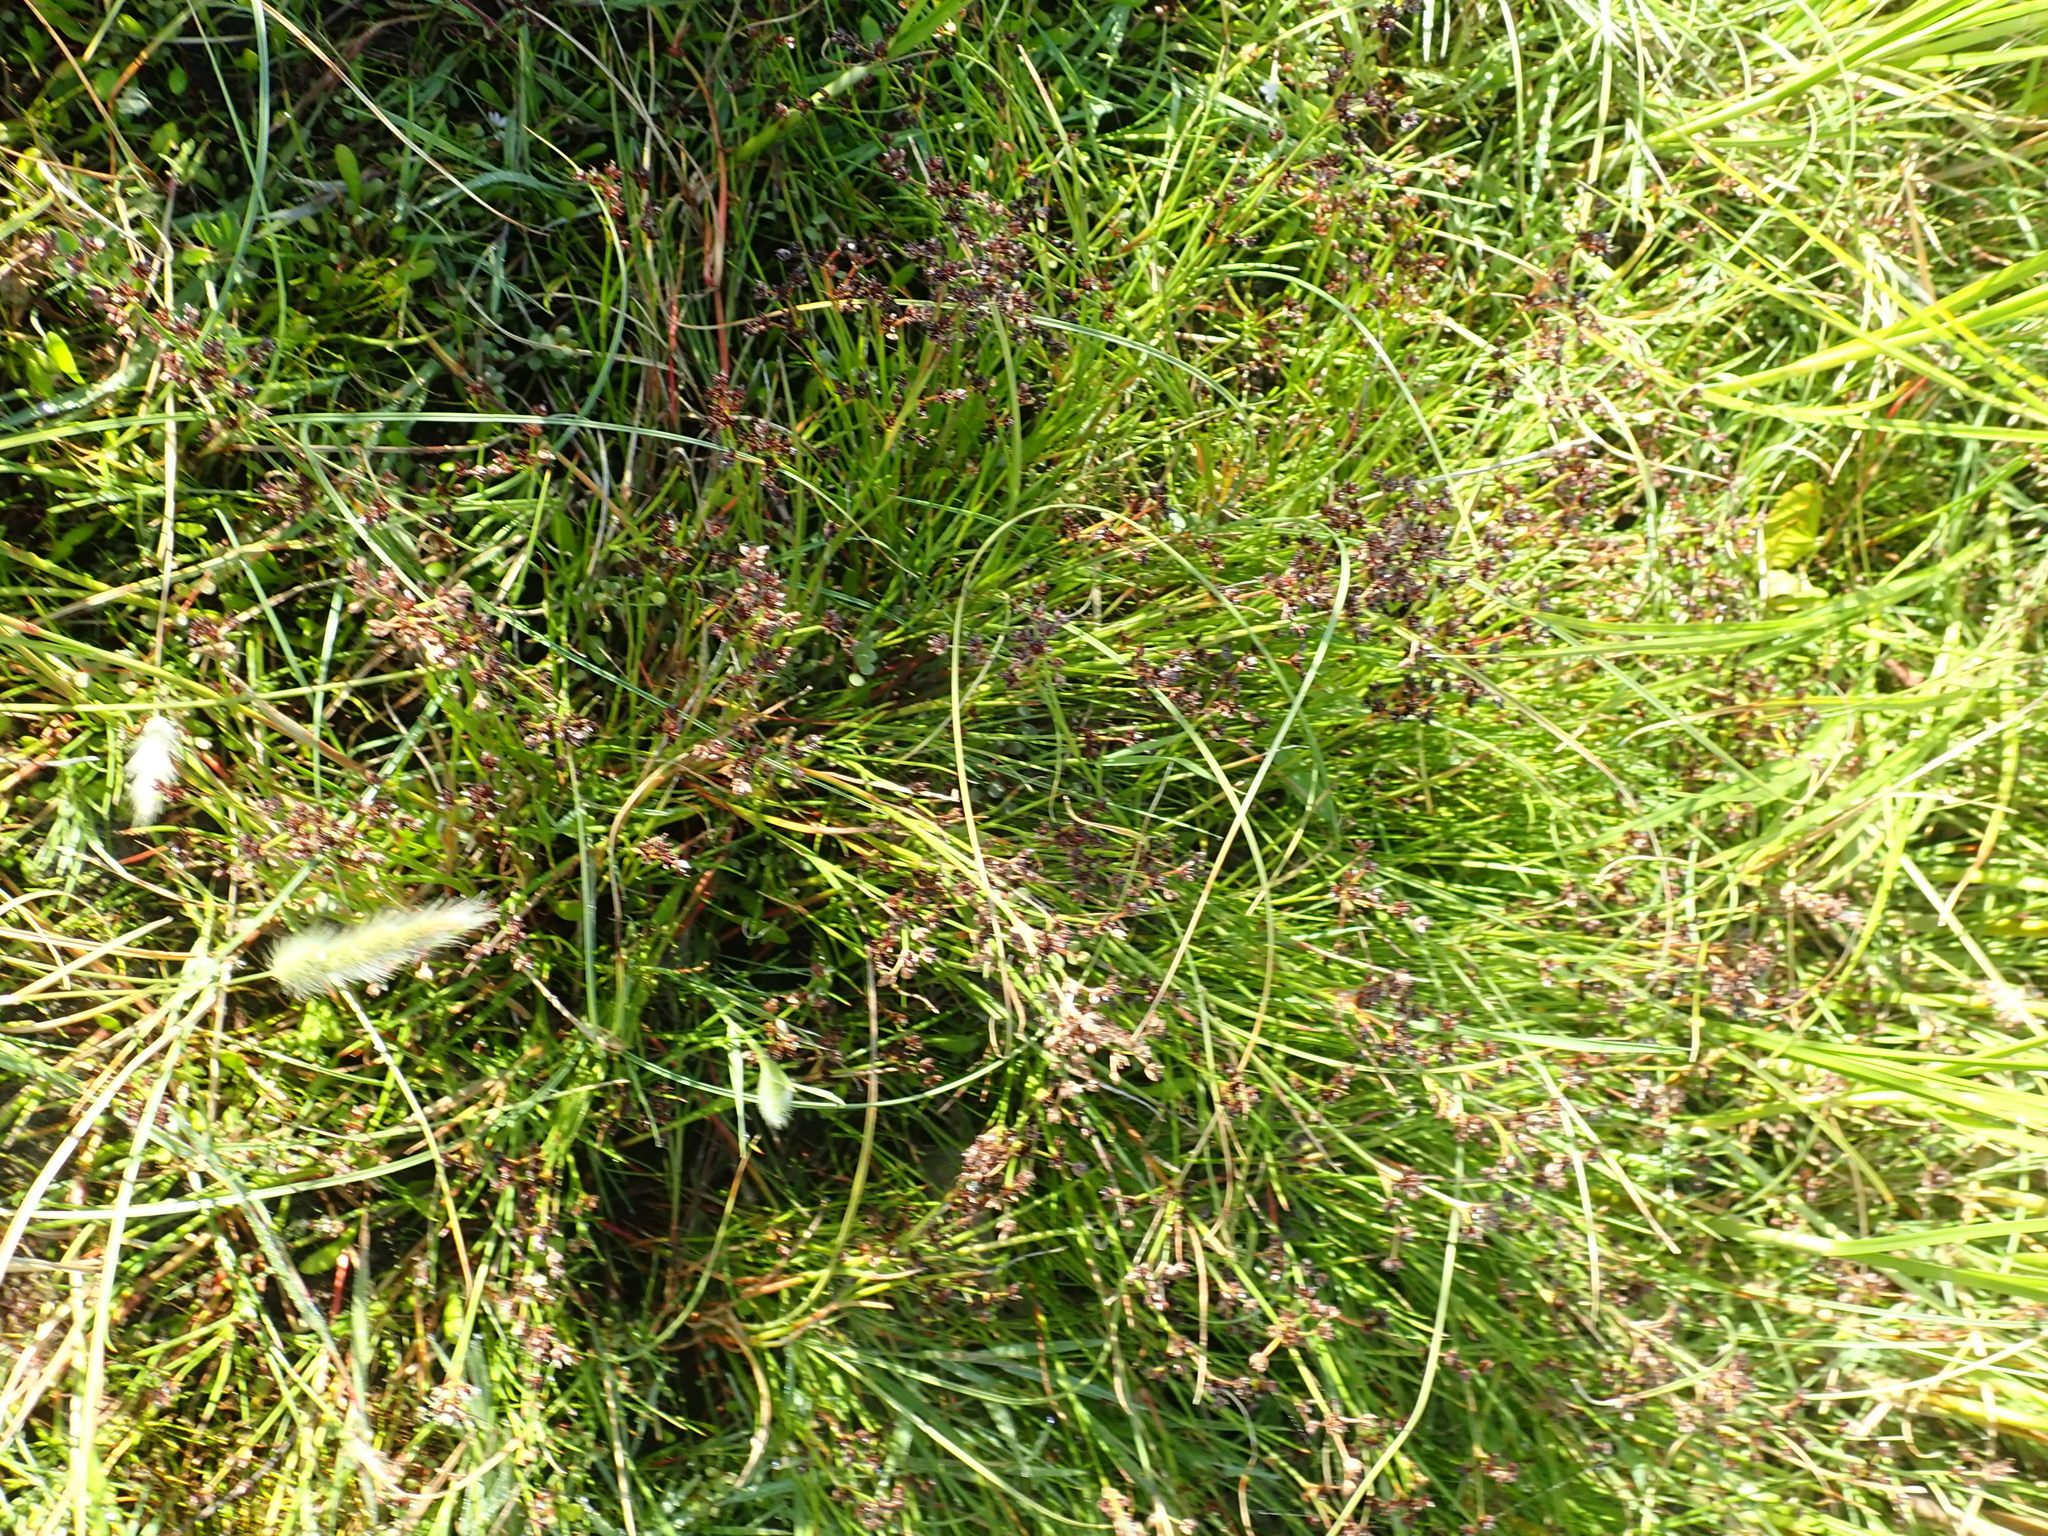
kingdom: Plantae
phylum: Tracheophyta
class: Liliopsida
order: Poales
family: Juncaceae
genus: Juncus
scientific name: Juncus articulatus
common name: Jointed rush
